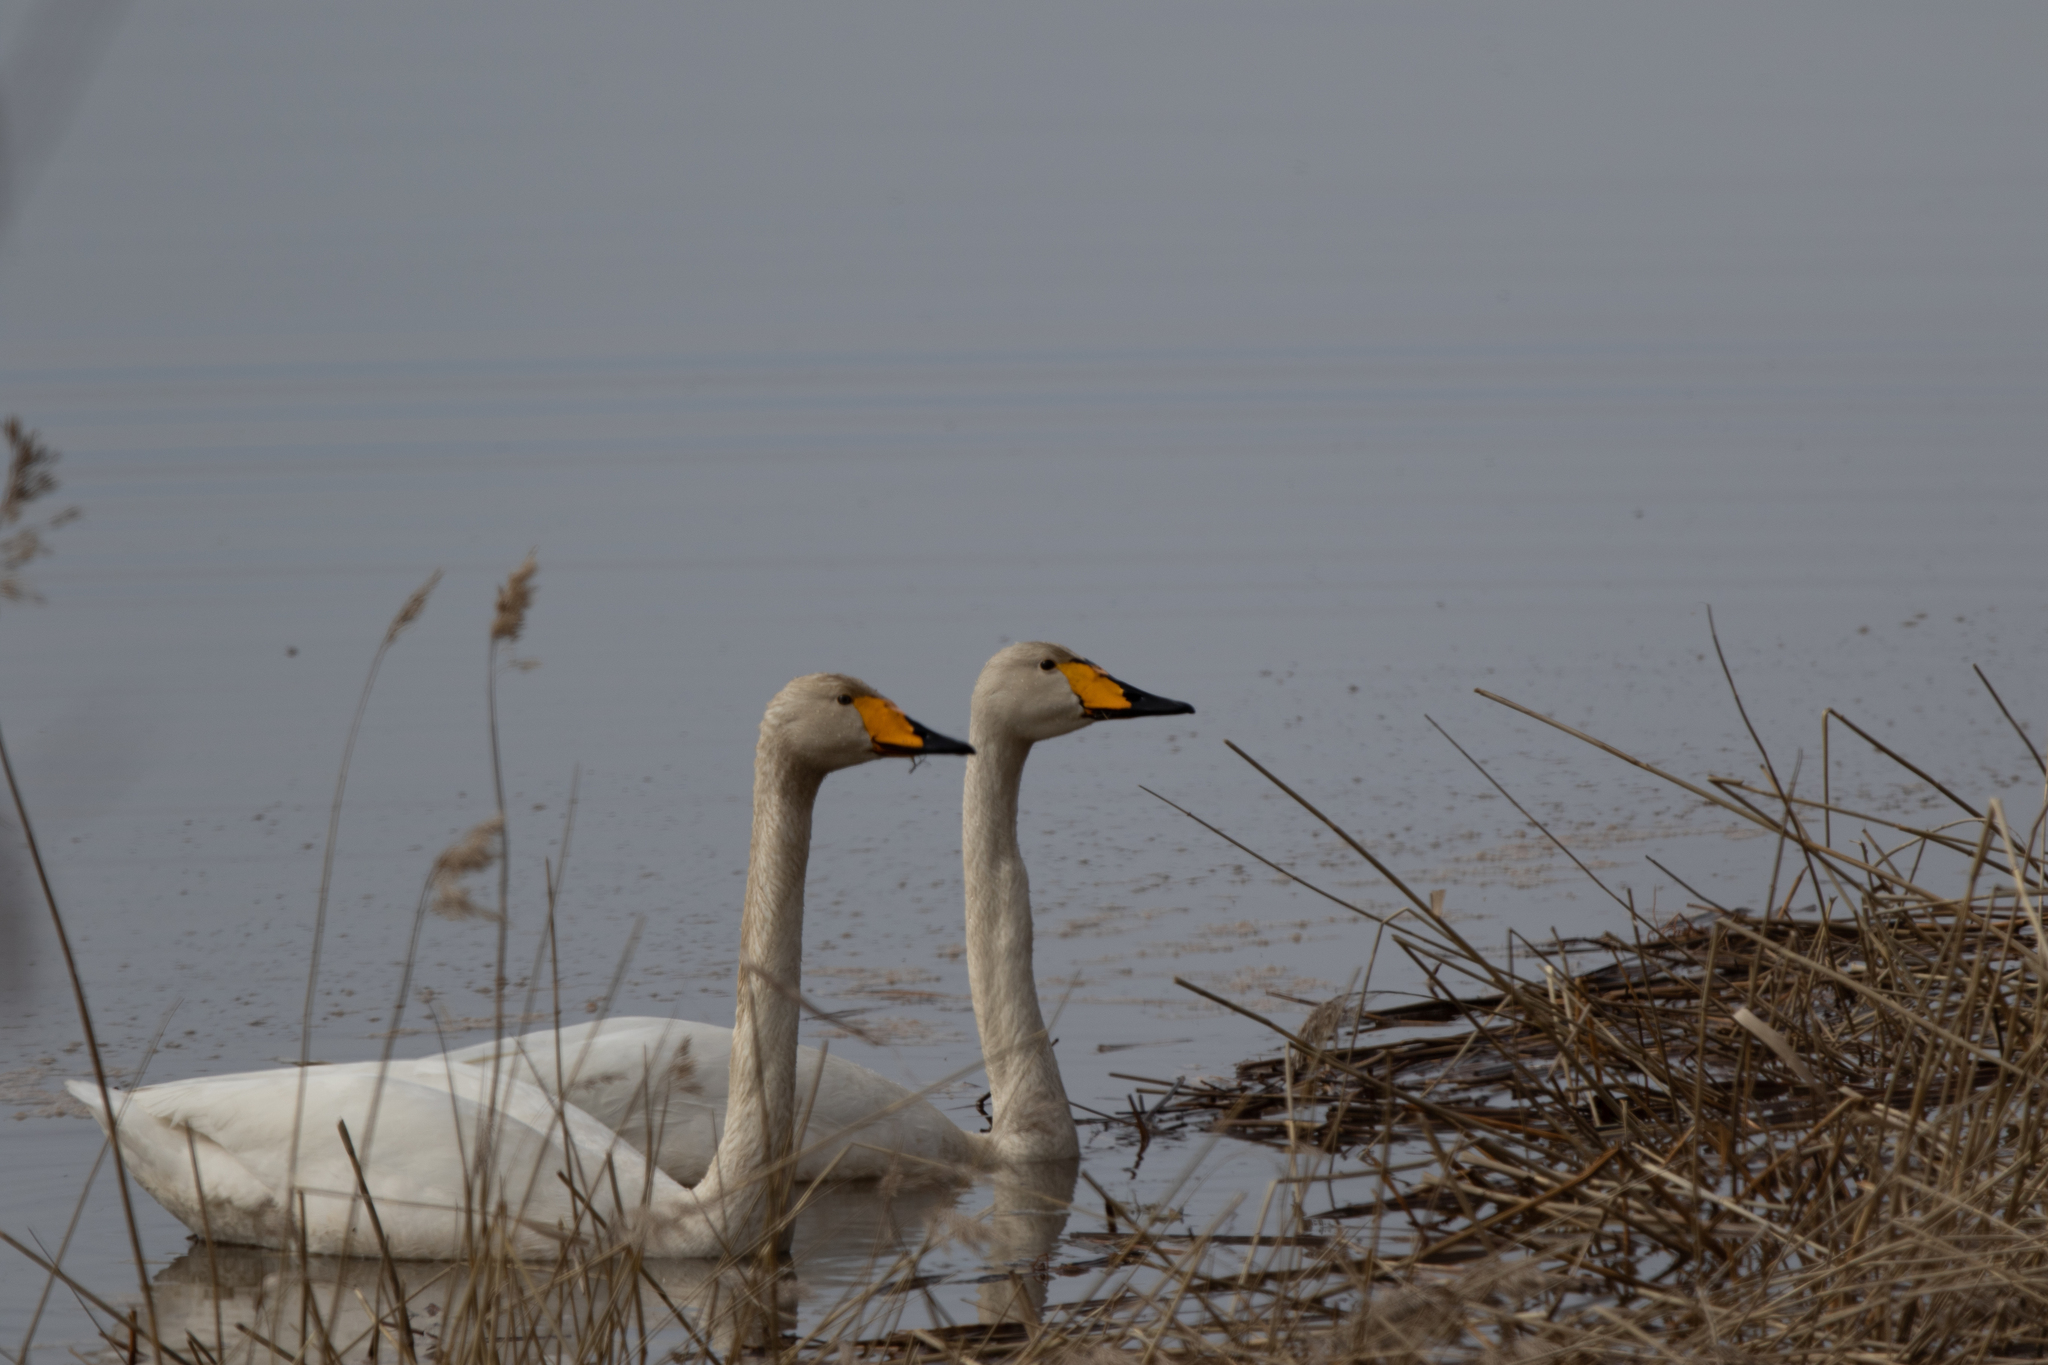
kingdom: Animalia
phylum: Chordata
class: Aves
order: Anseriformes
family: Anatidae
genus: Cygnus
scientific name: Cygnus cygnus
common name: Whooper swan
